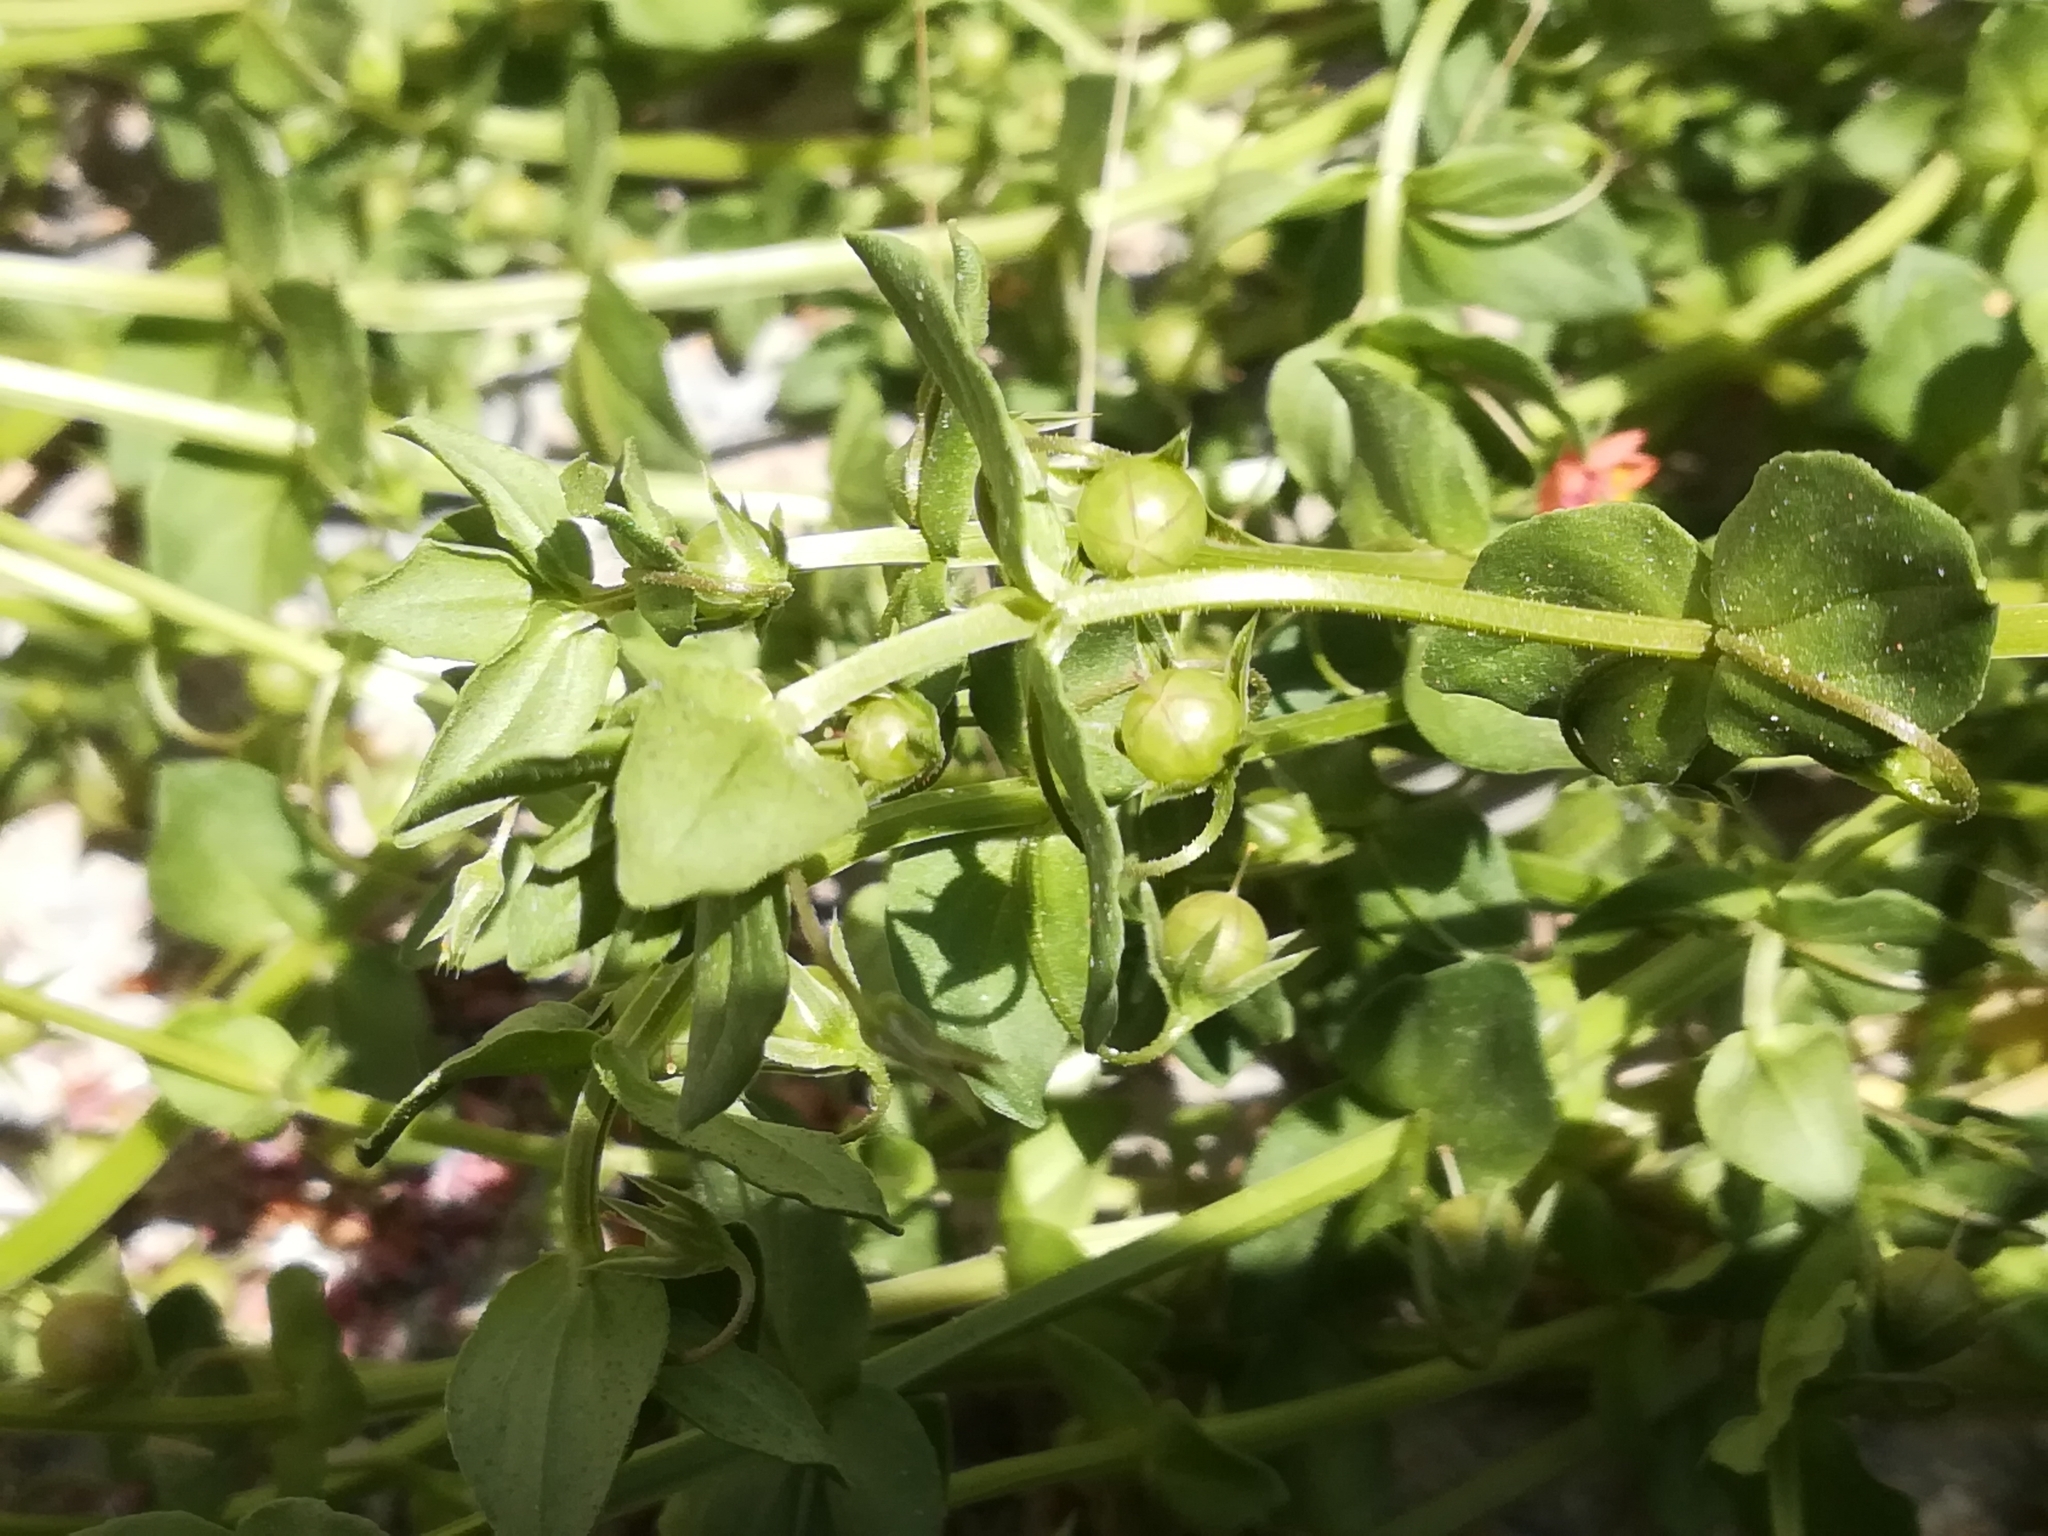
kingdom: Plantae
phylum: Tracheophyta
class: Magnoliopsida
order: Ericales
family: Primulaceae
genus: Lysimachia
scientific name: Lysimachia arvensis
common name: Scarlet pimpernel
